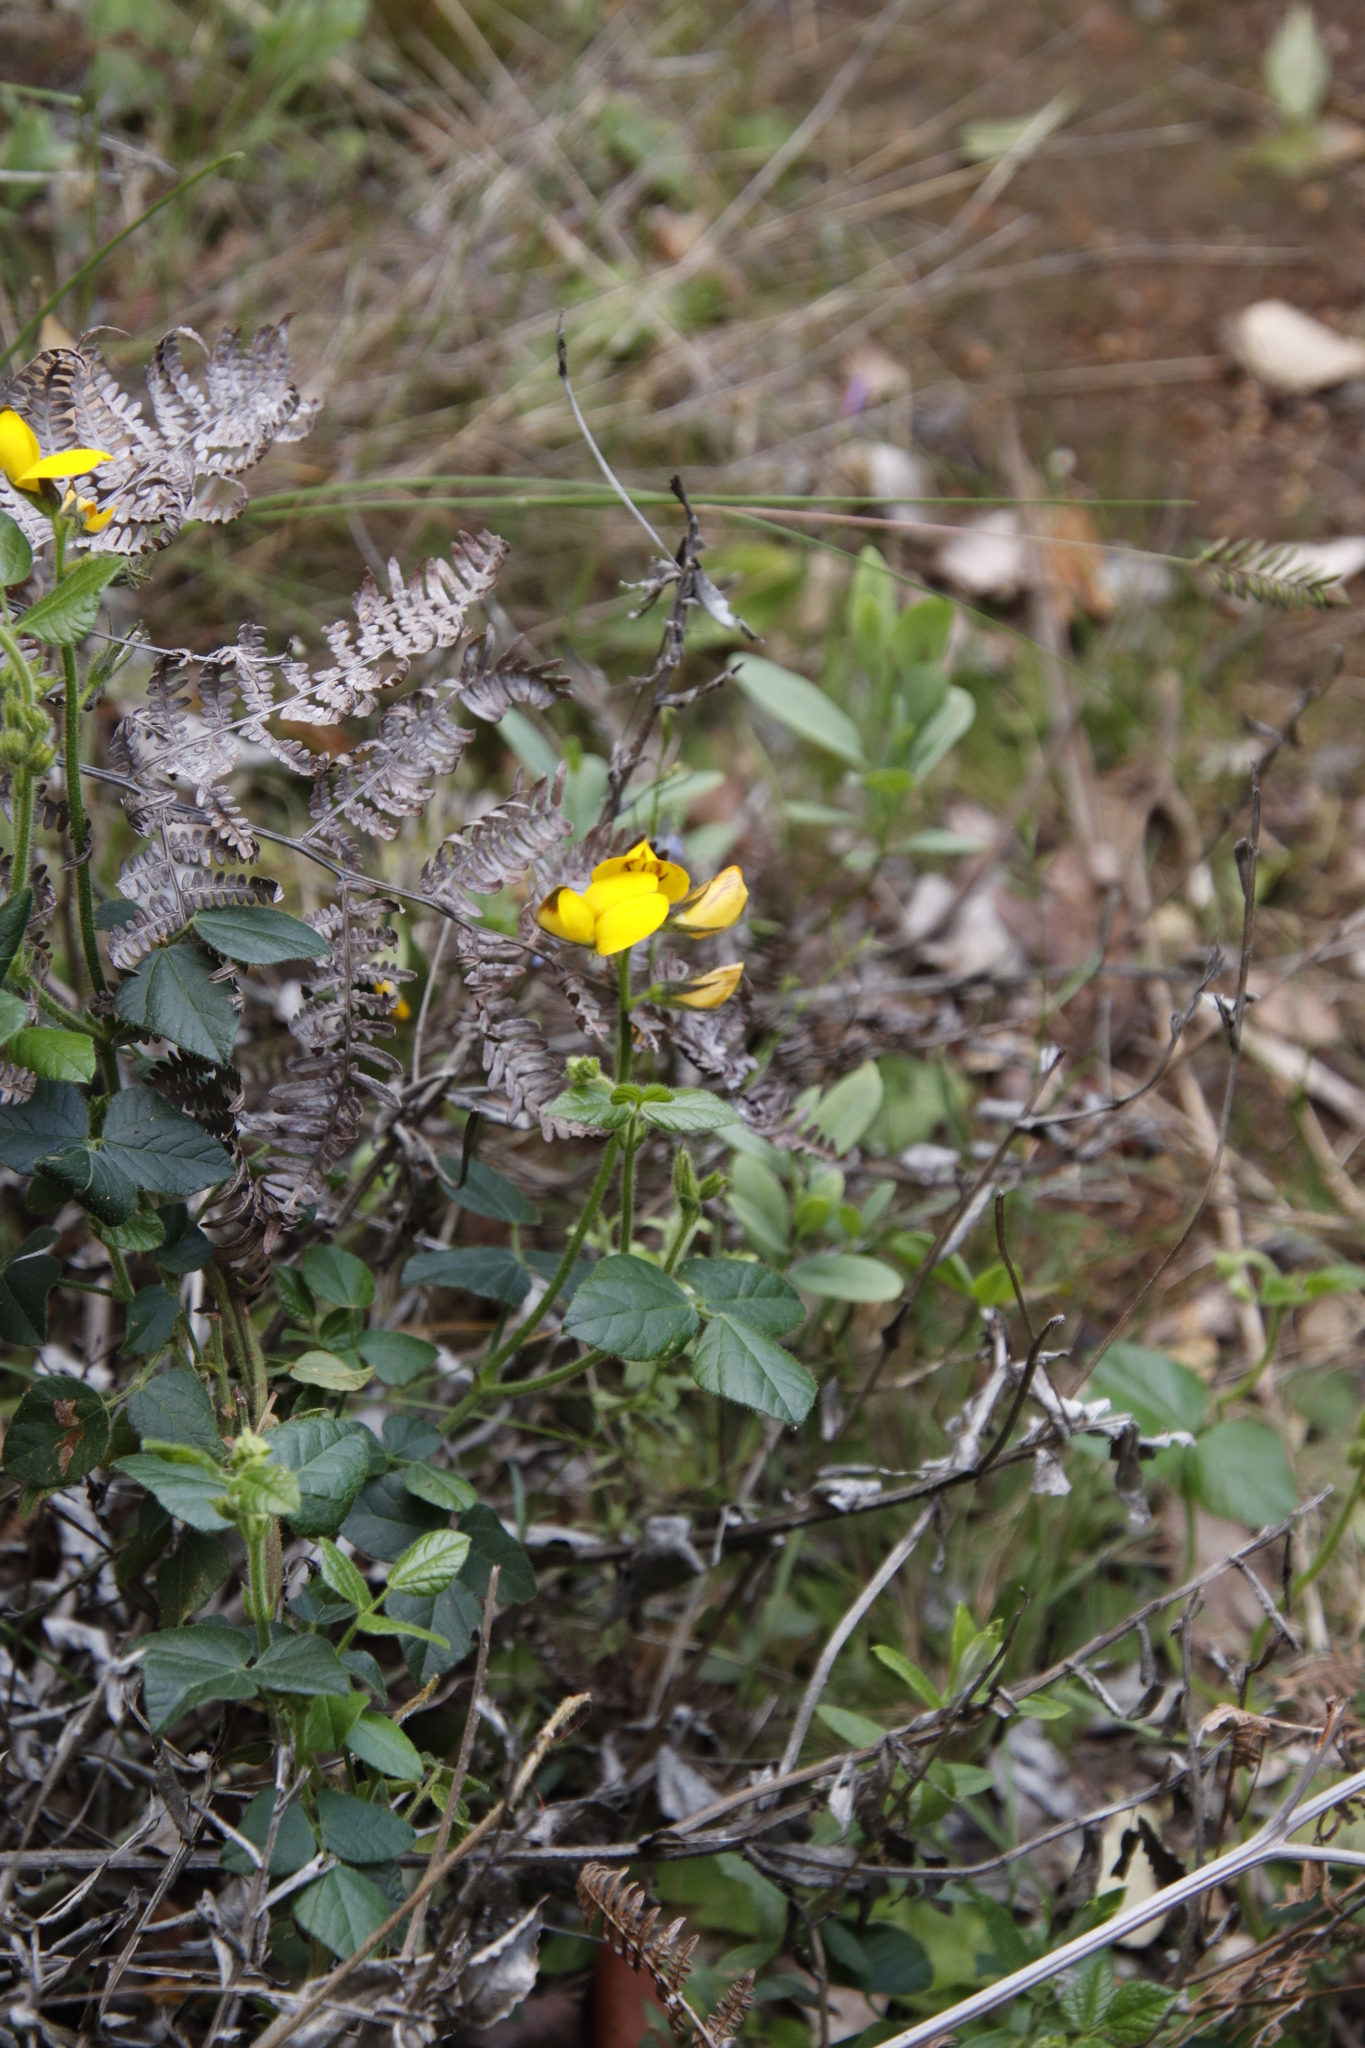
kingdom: Plantae
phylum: Tracheophyta
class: Magnoliopsida
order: Fabales
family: Fabaceae
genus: Bolusafra
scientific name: Bolusafra bituminosa
